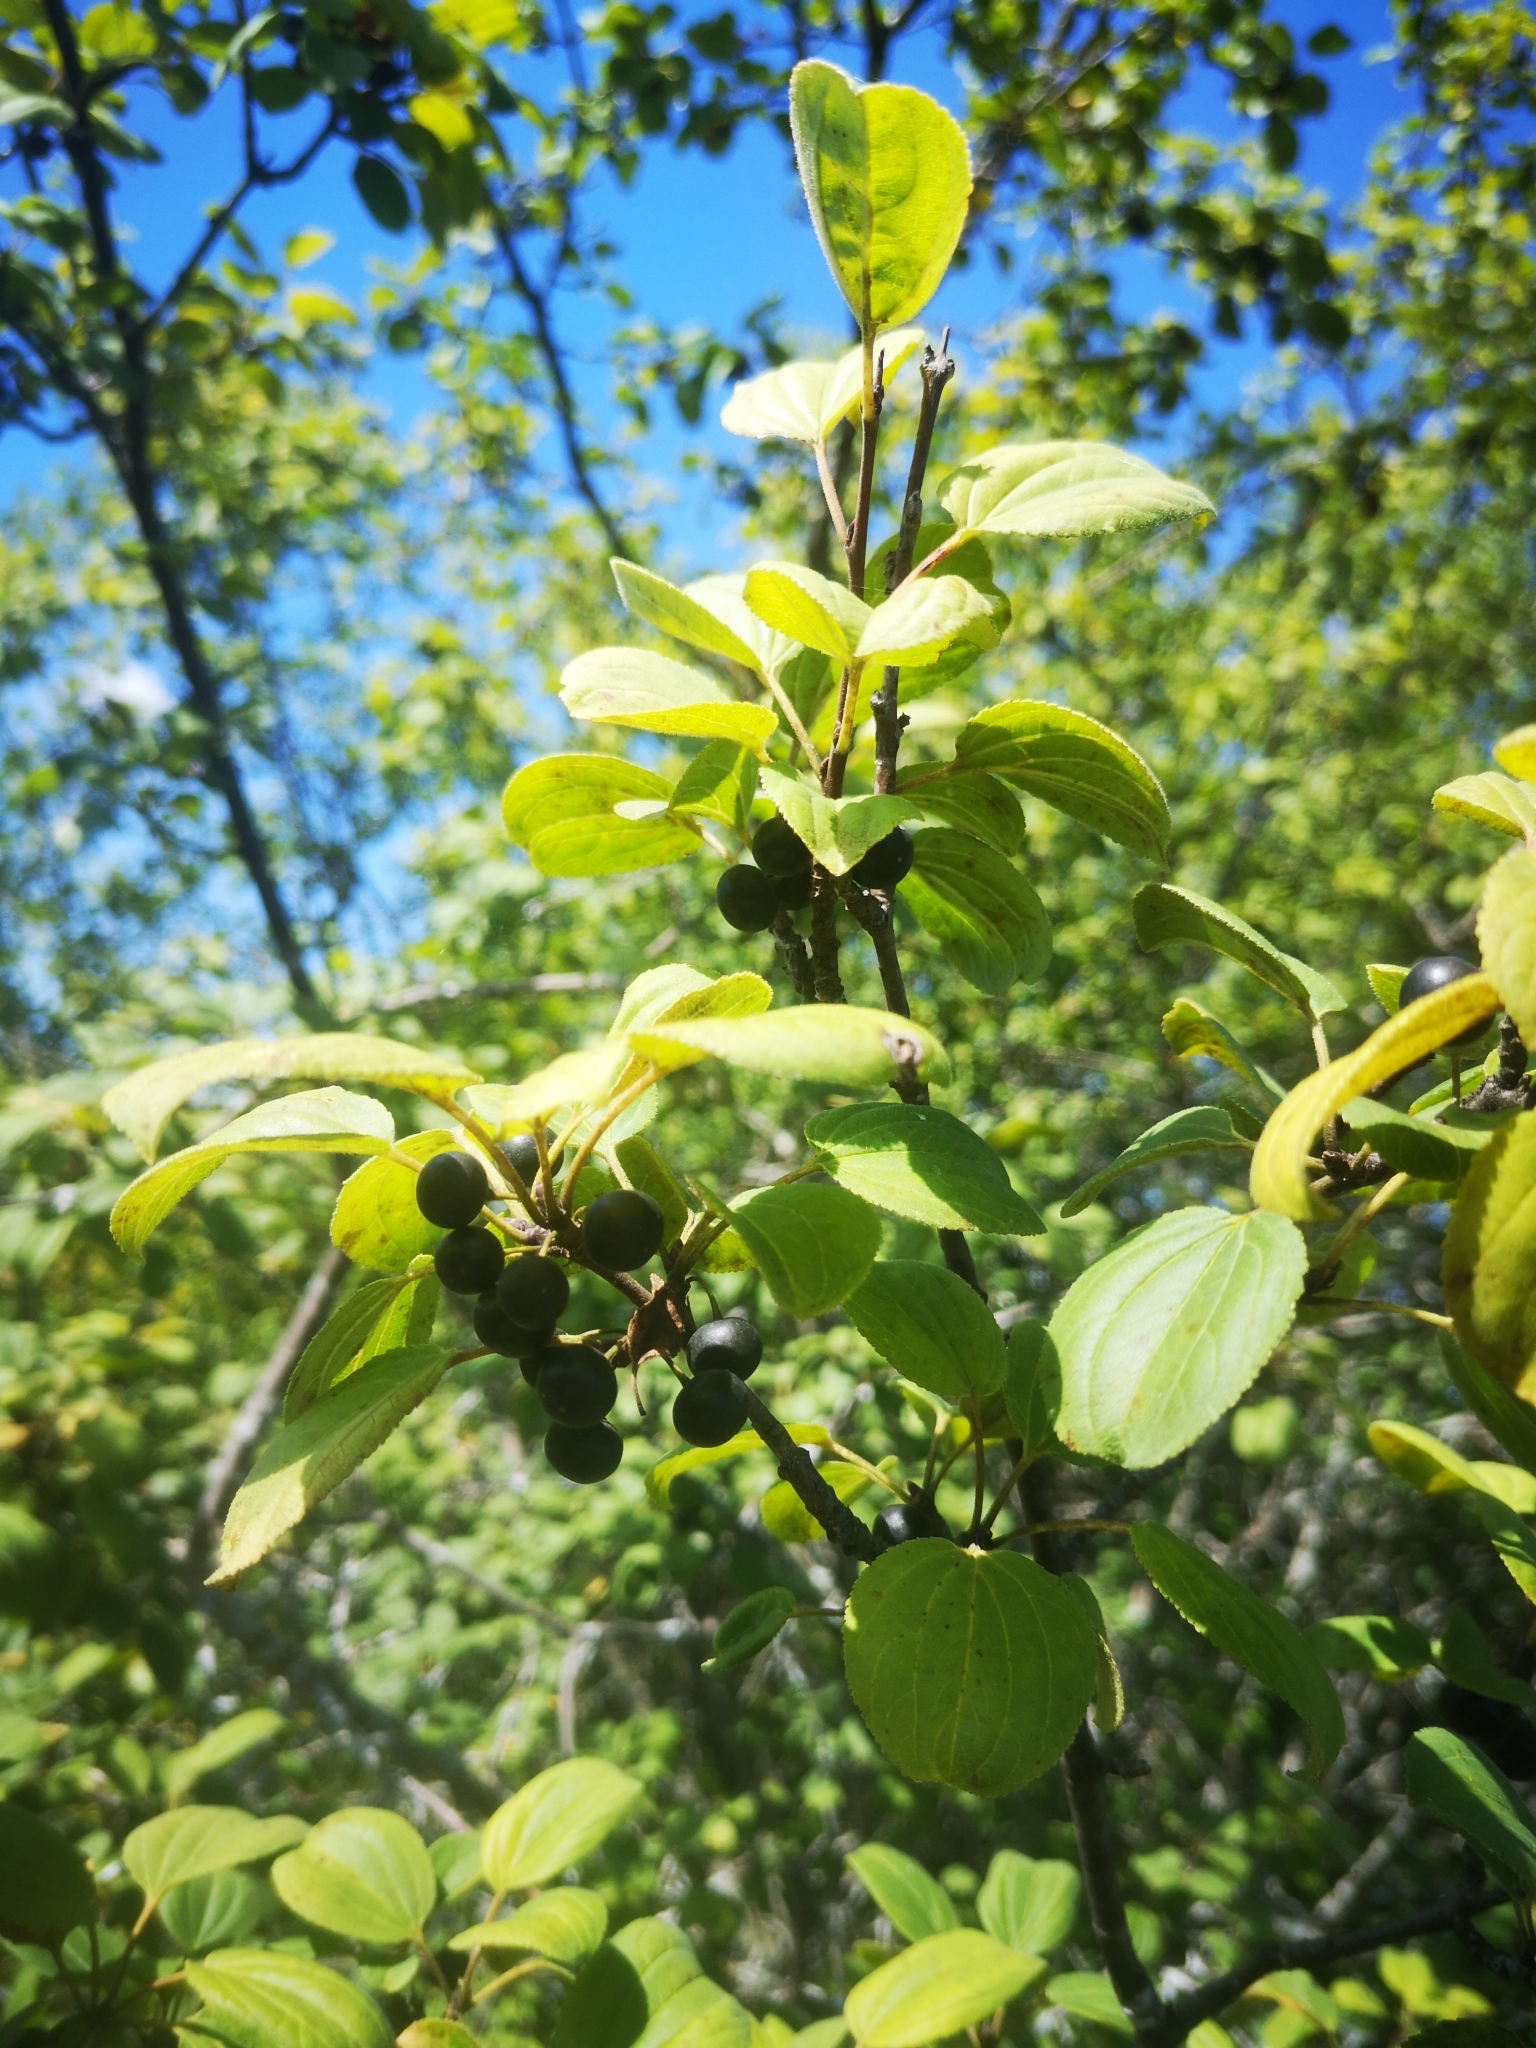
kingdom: Plantae
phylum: Tracheophyta
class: Magnoliopsida
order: Rosales
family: Rhamnaceae
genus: Rhamnus
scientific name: Rhamnus cathartica
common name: Common buckthorn
